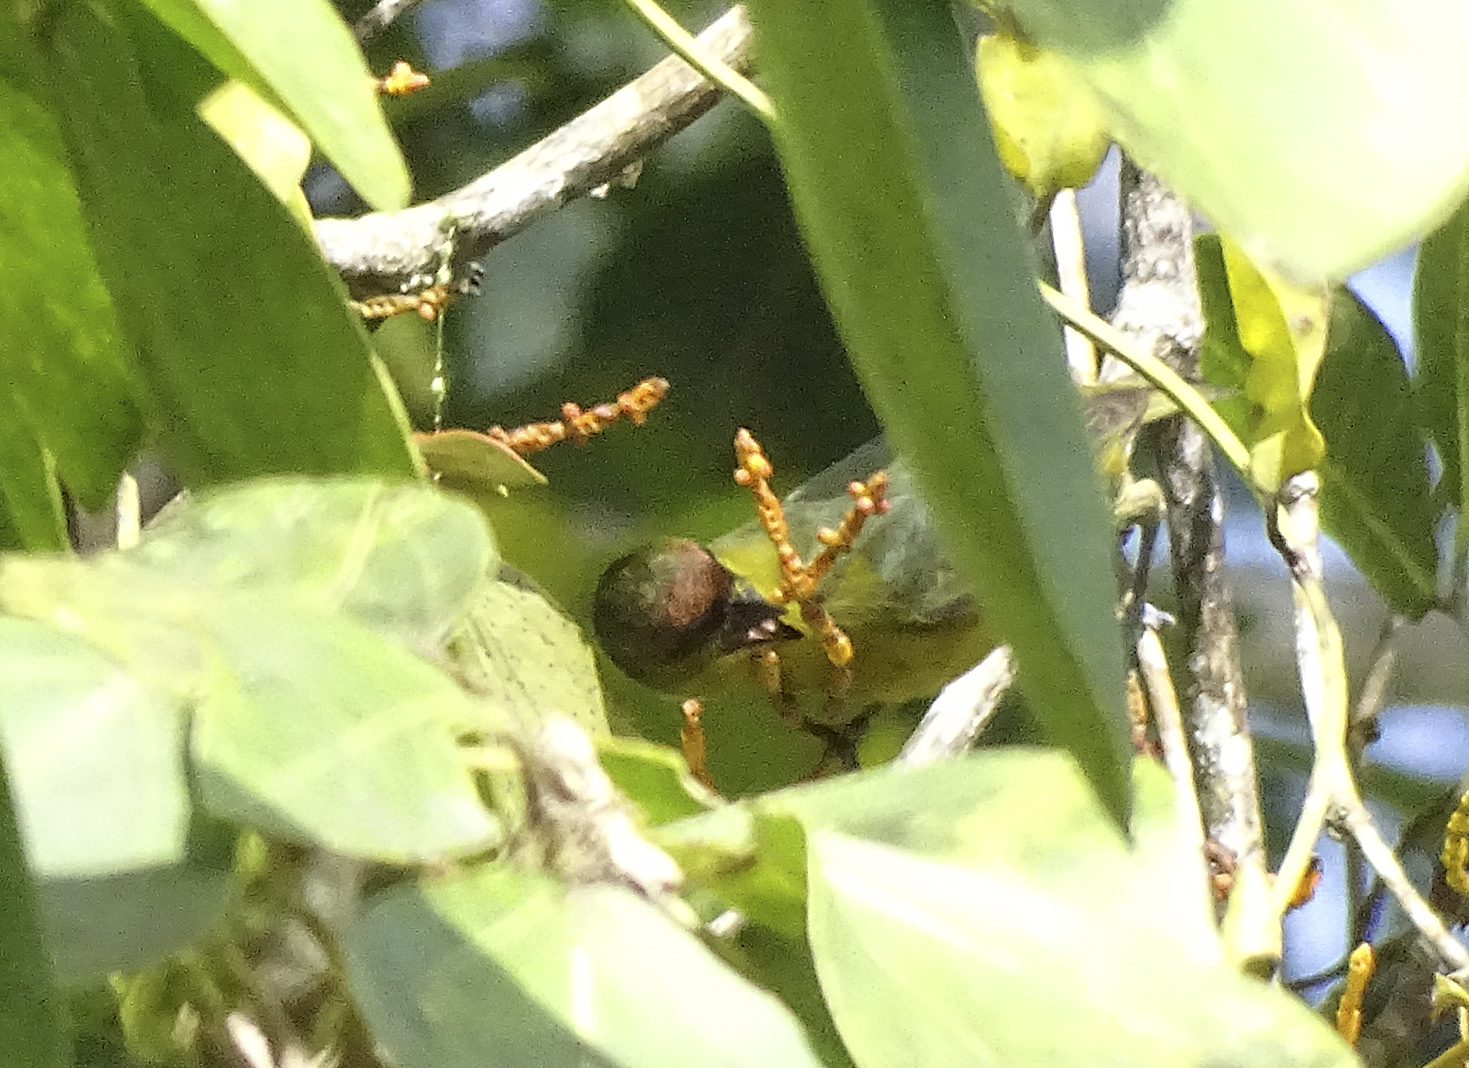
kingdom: Animalia
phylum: Chordata
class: Aves
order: Passeriformes
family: Fringillidae
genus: Euphonia
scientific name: Euphonia gouldi
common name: Olive-backed euphonia
